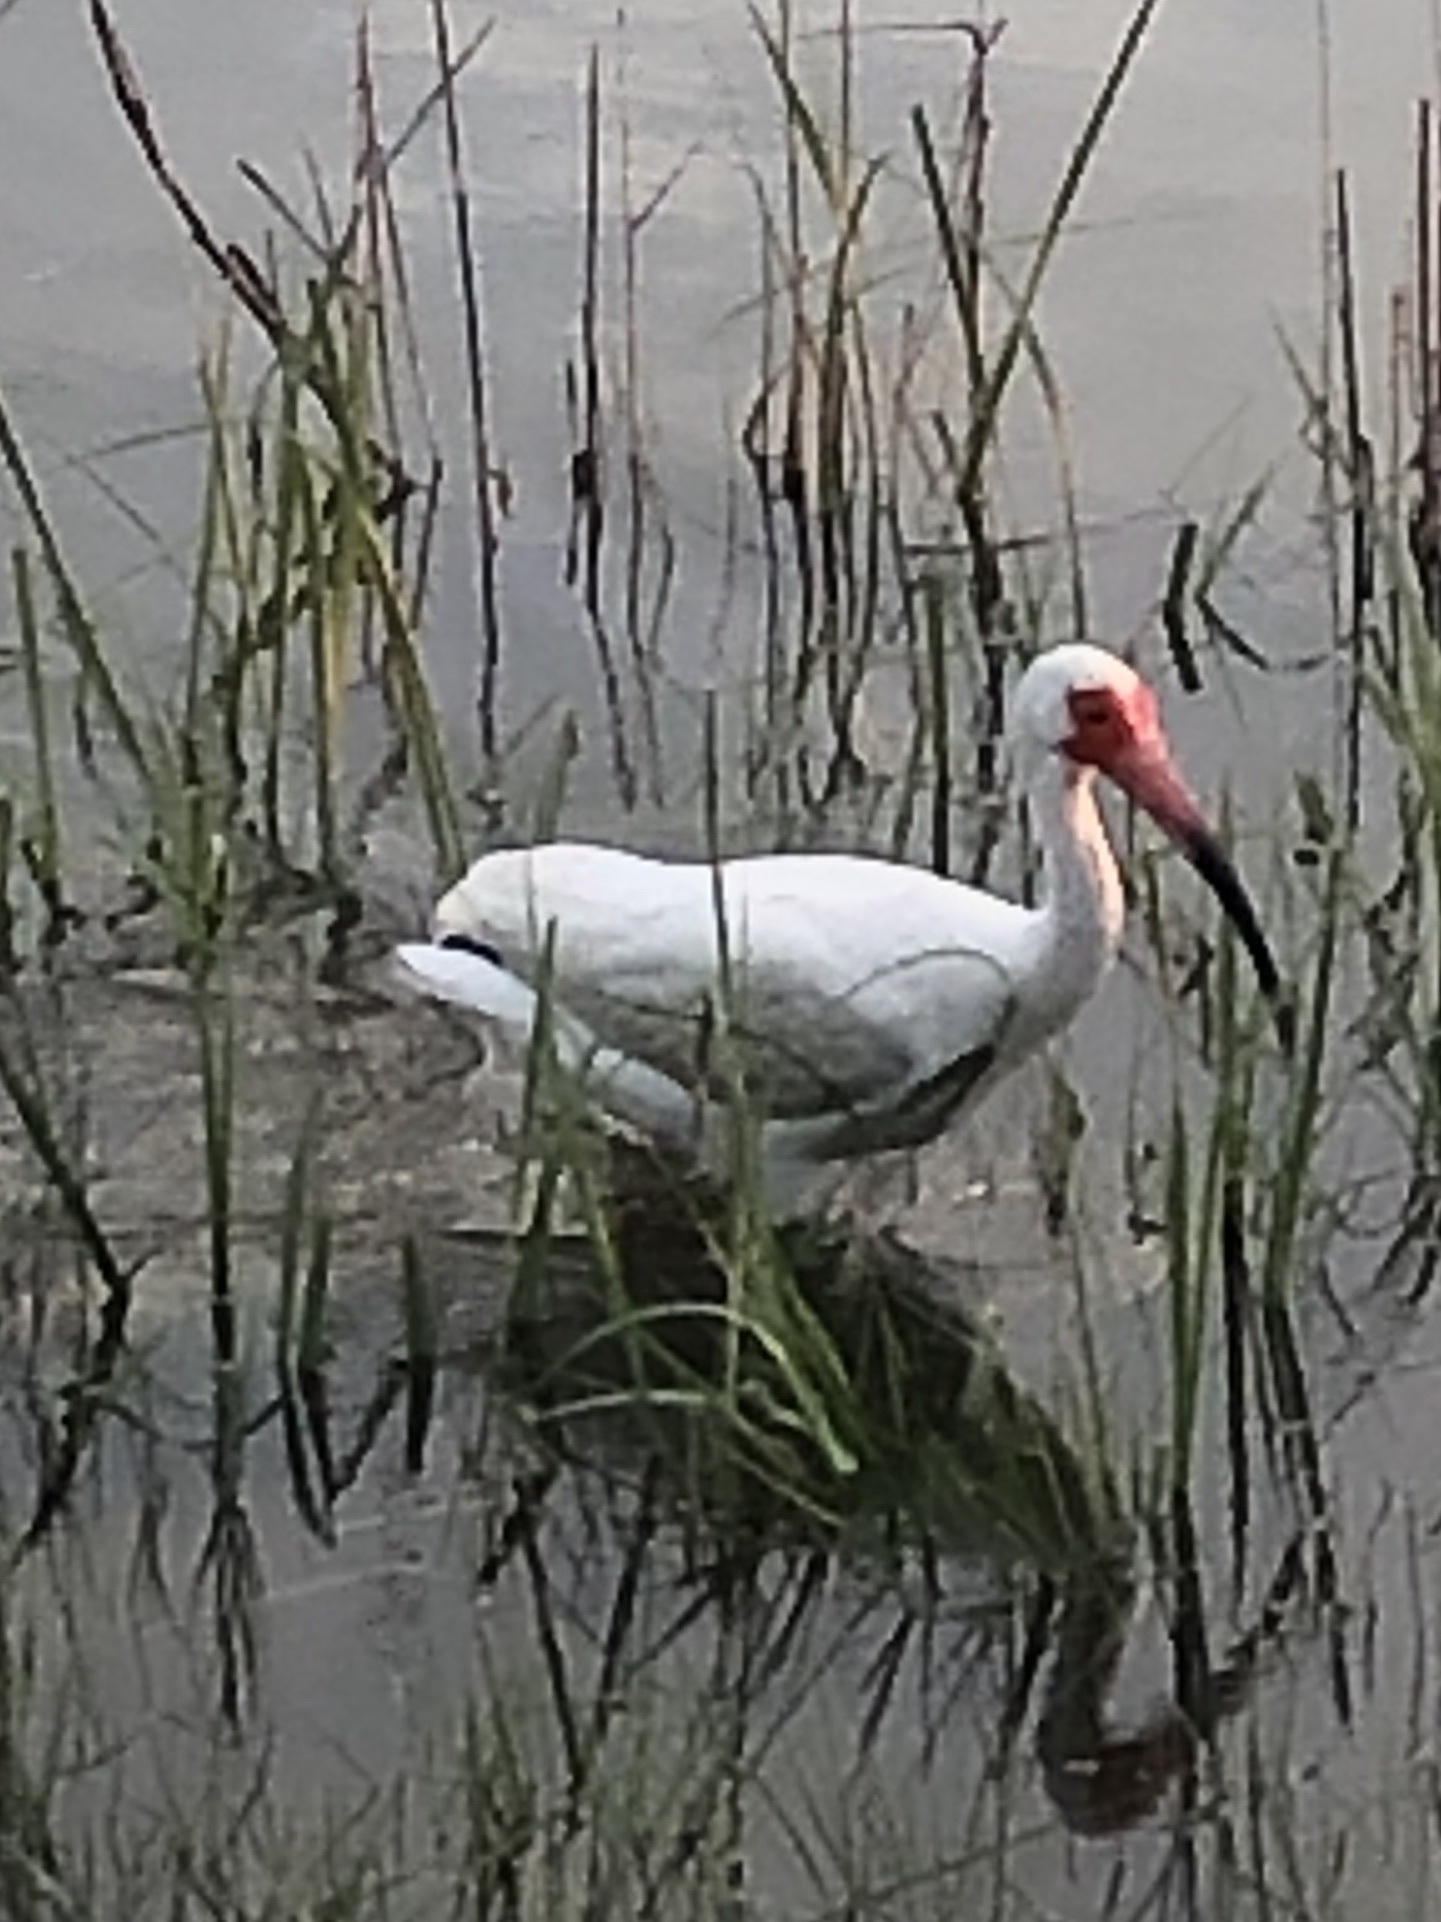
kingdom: Animalia
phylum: Chordata
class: Aves
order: Pelecaniformes
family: Threskiornithidae
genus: Eudocimus
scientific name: Eudocimus albus
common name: White ibis
